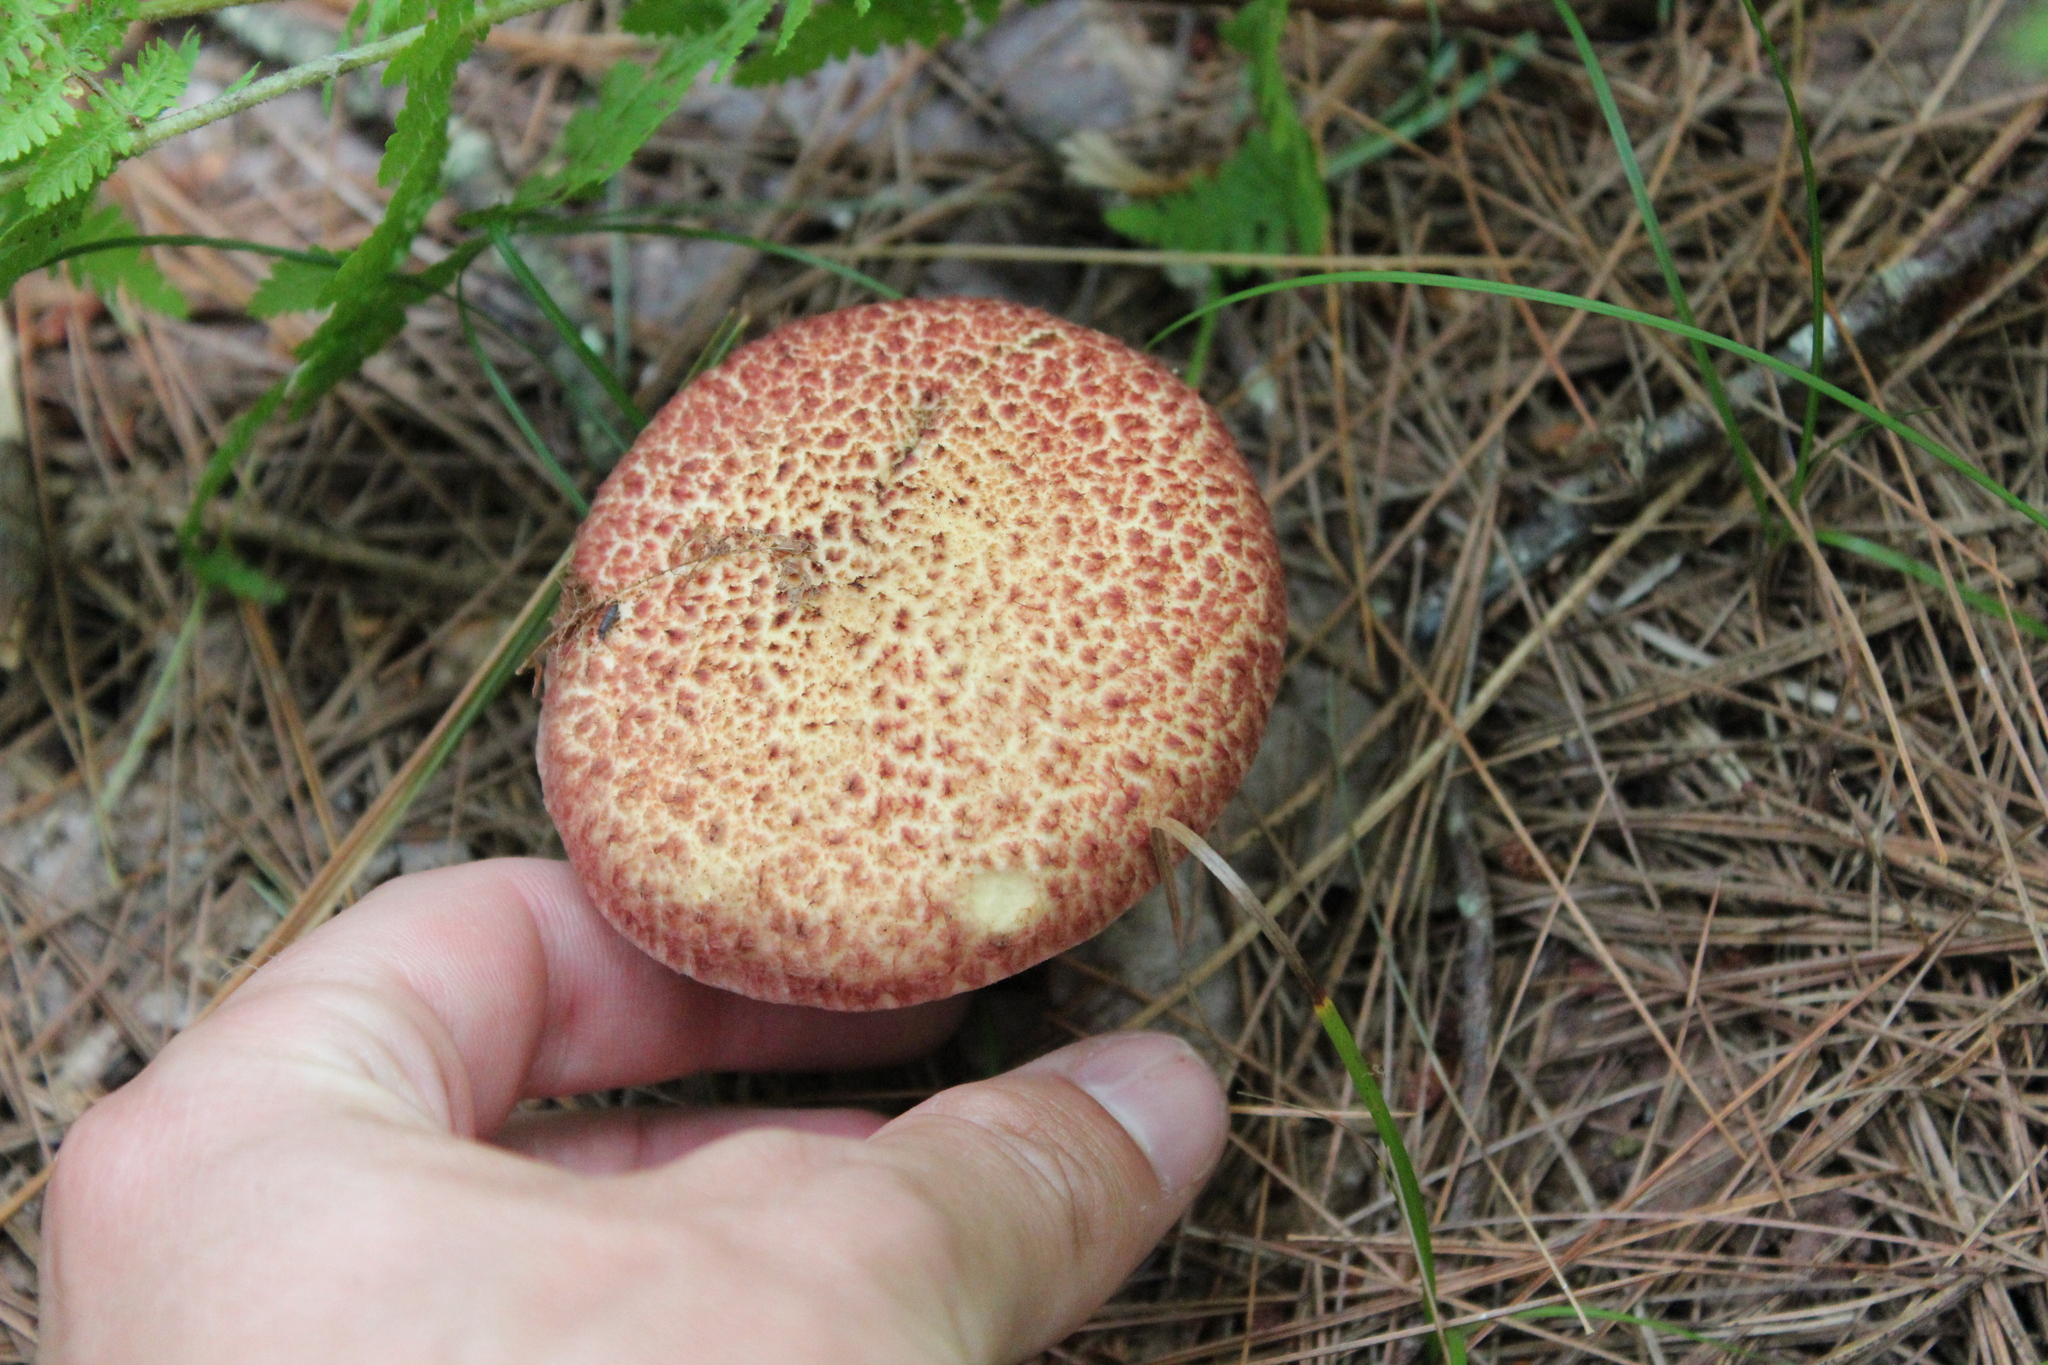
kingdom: Fungi
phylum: Basidiomycota
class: Agaricomycetes
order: Boletales
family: Suillaceae
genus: Suillus
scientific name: Suillus spraguei
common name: Painted suillus
